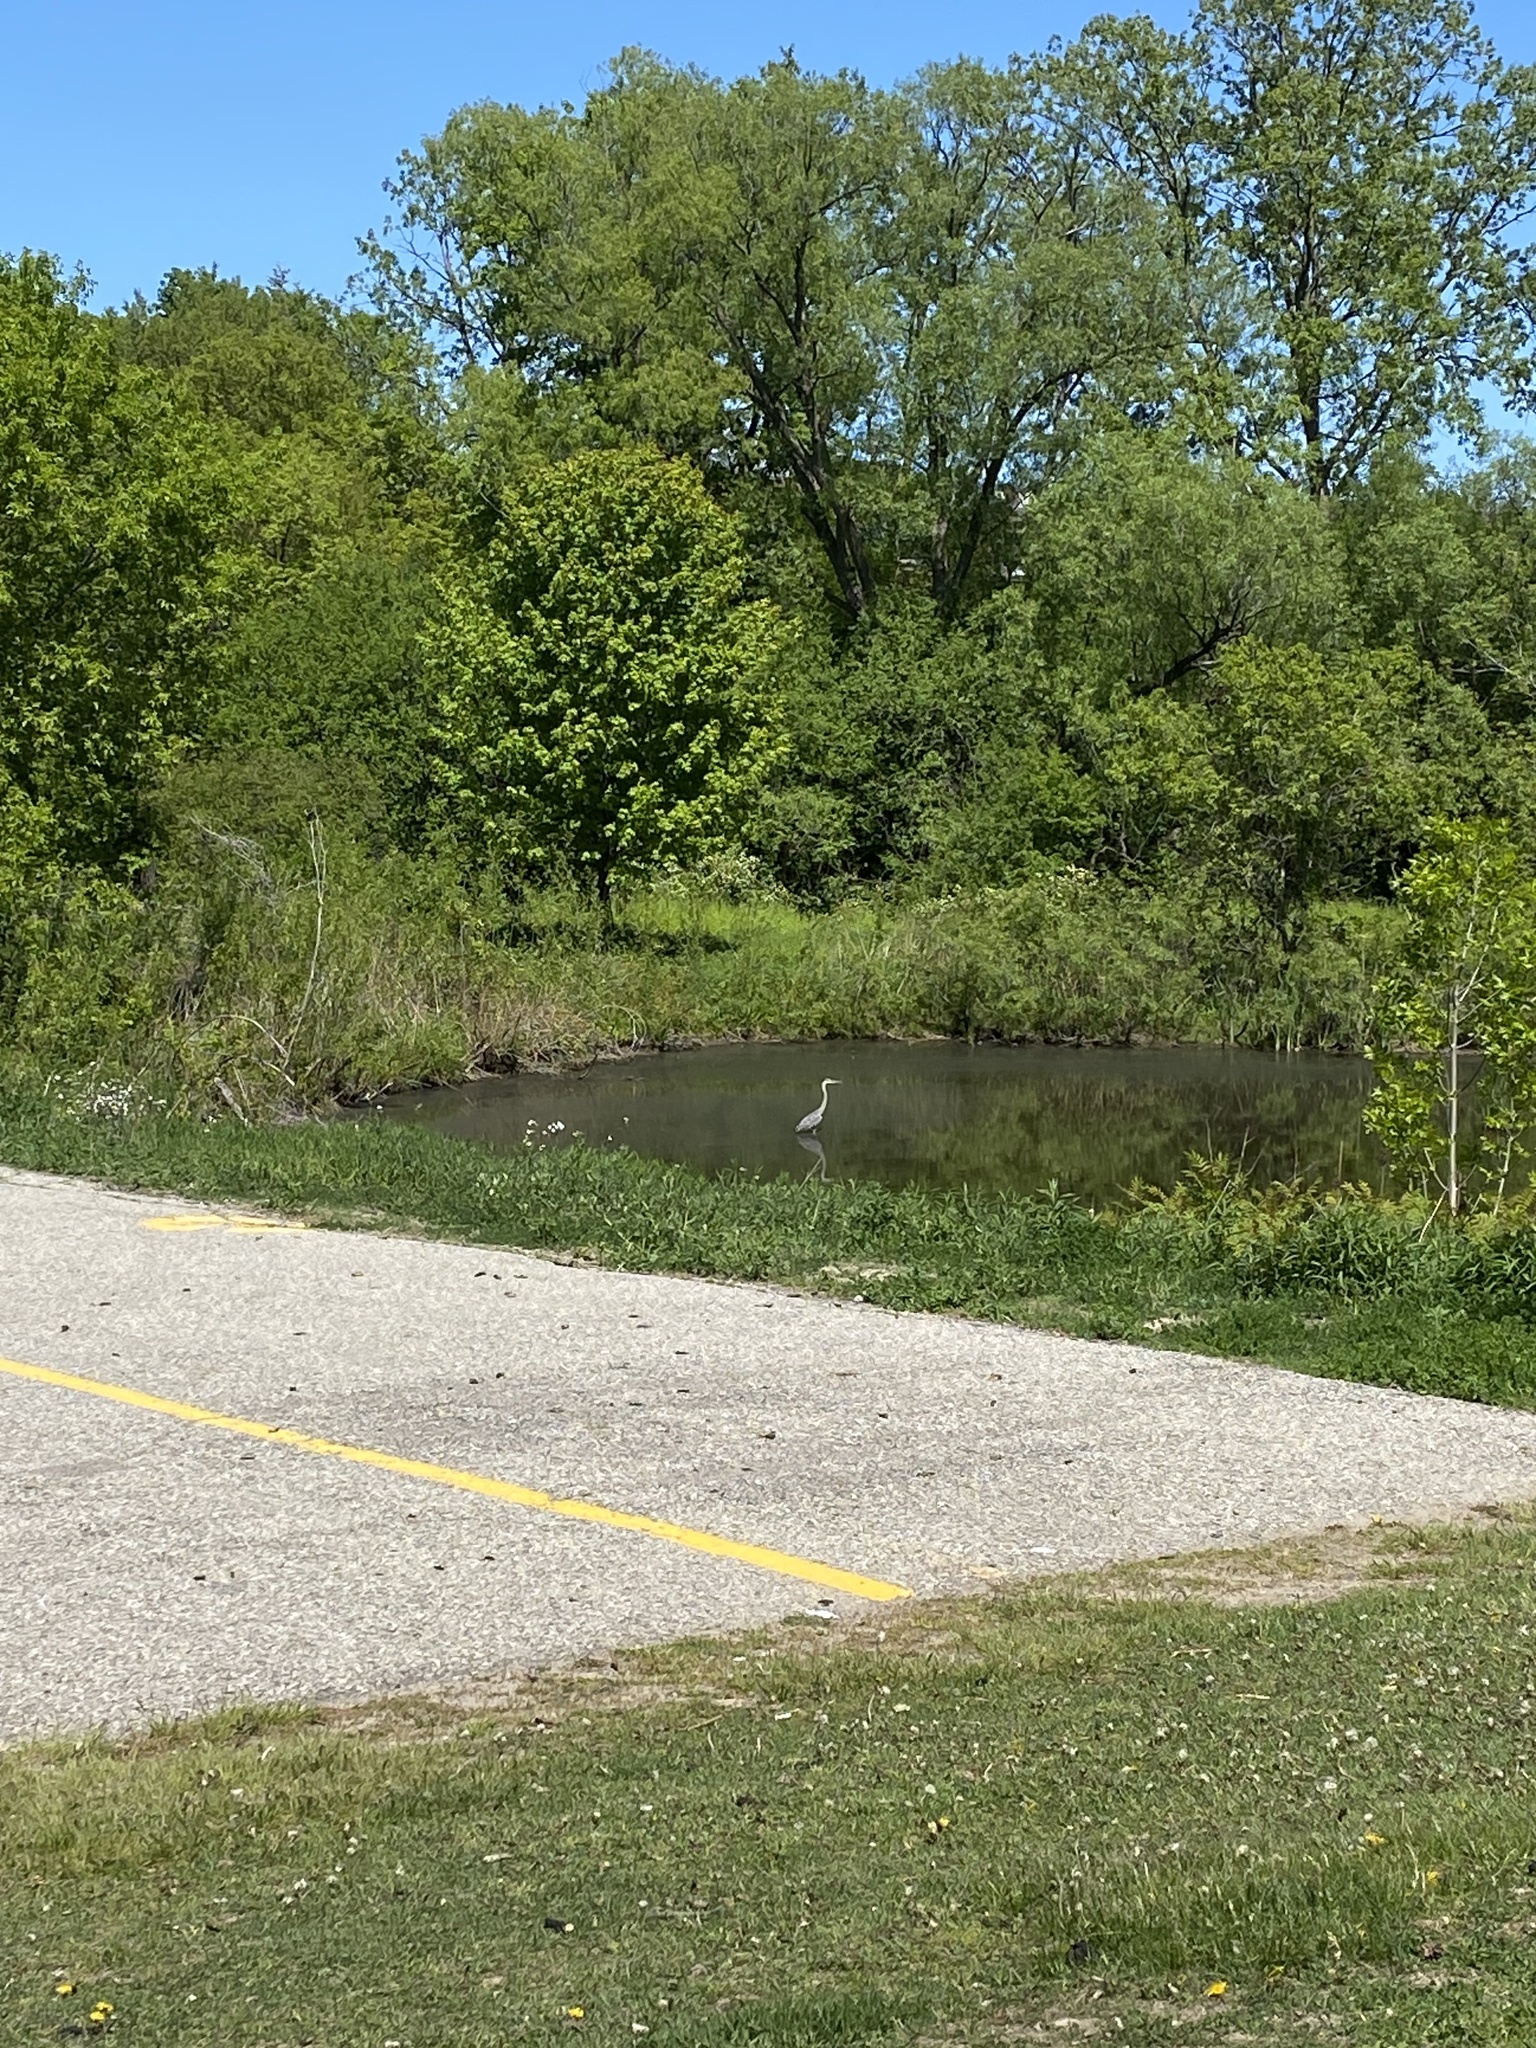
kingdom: Animalia
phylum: Chordata
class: Aves
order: Pelecaniformes
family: Ardeidae
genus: Ardea
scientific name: Ardea herodias
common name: Great blue heron
